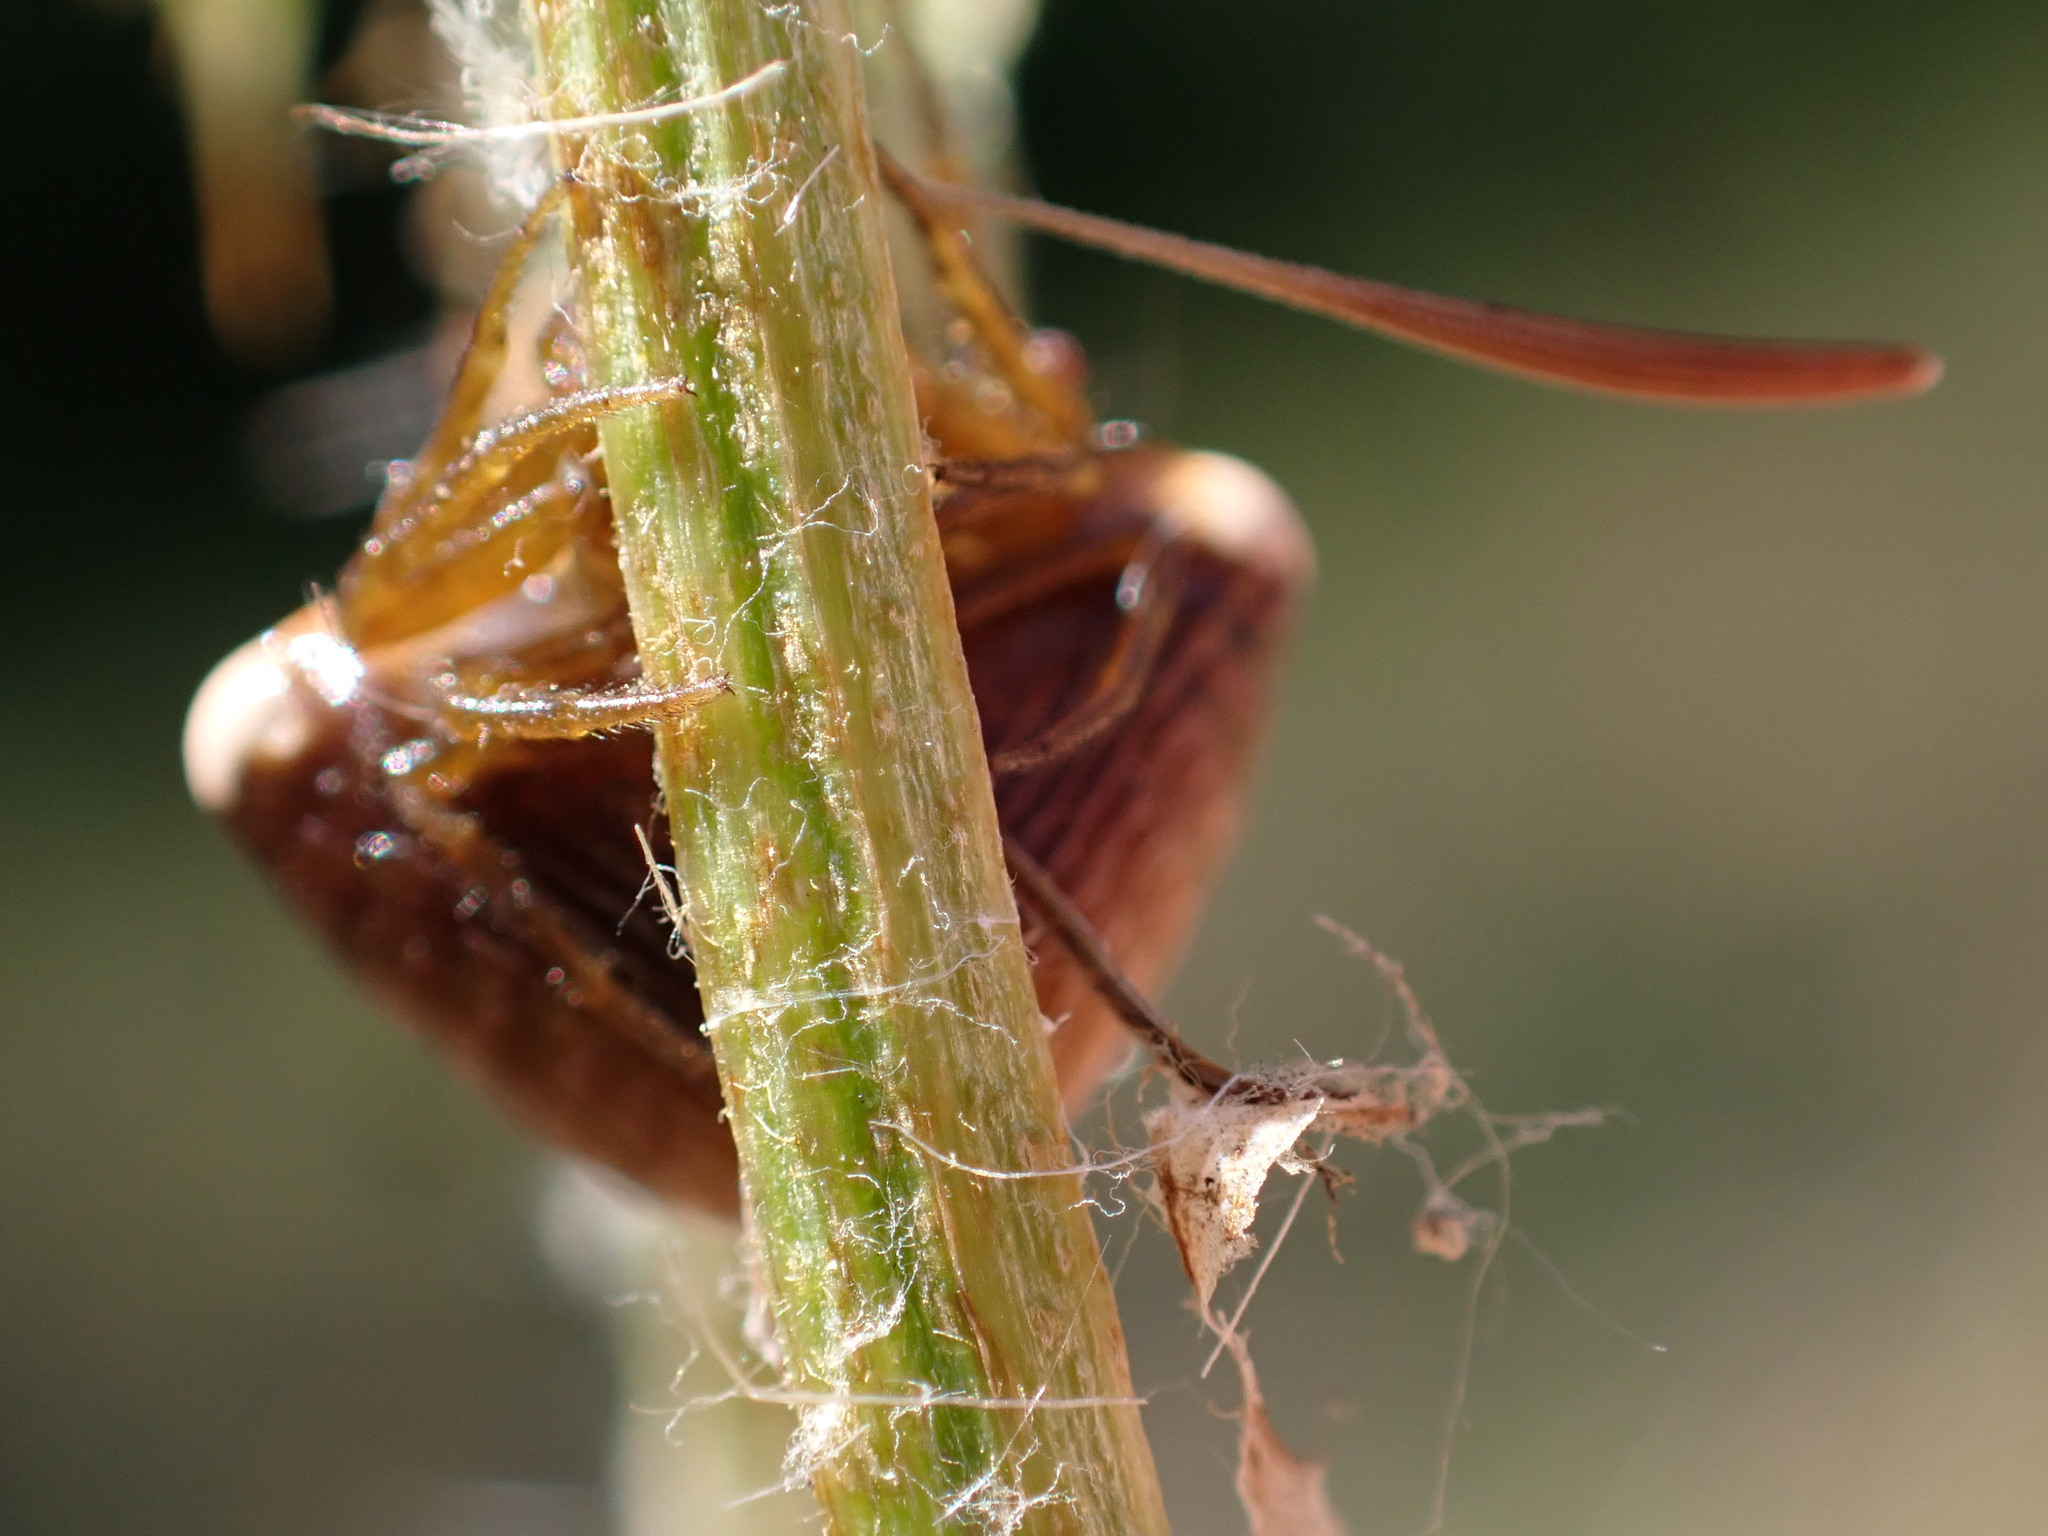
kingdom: Animalia
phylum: Arthropoda
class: Arachnida
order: Araneae
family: Araneidae
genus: Cyrtarachne
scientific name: Cyrtarachne ixoides
